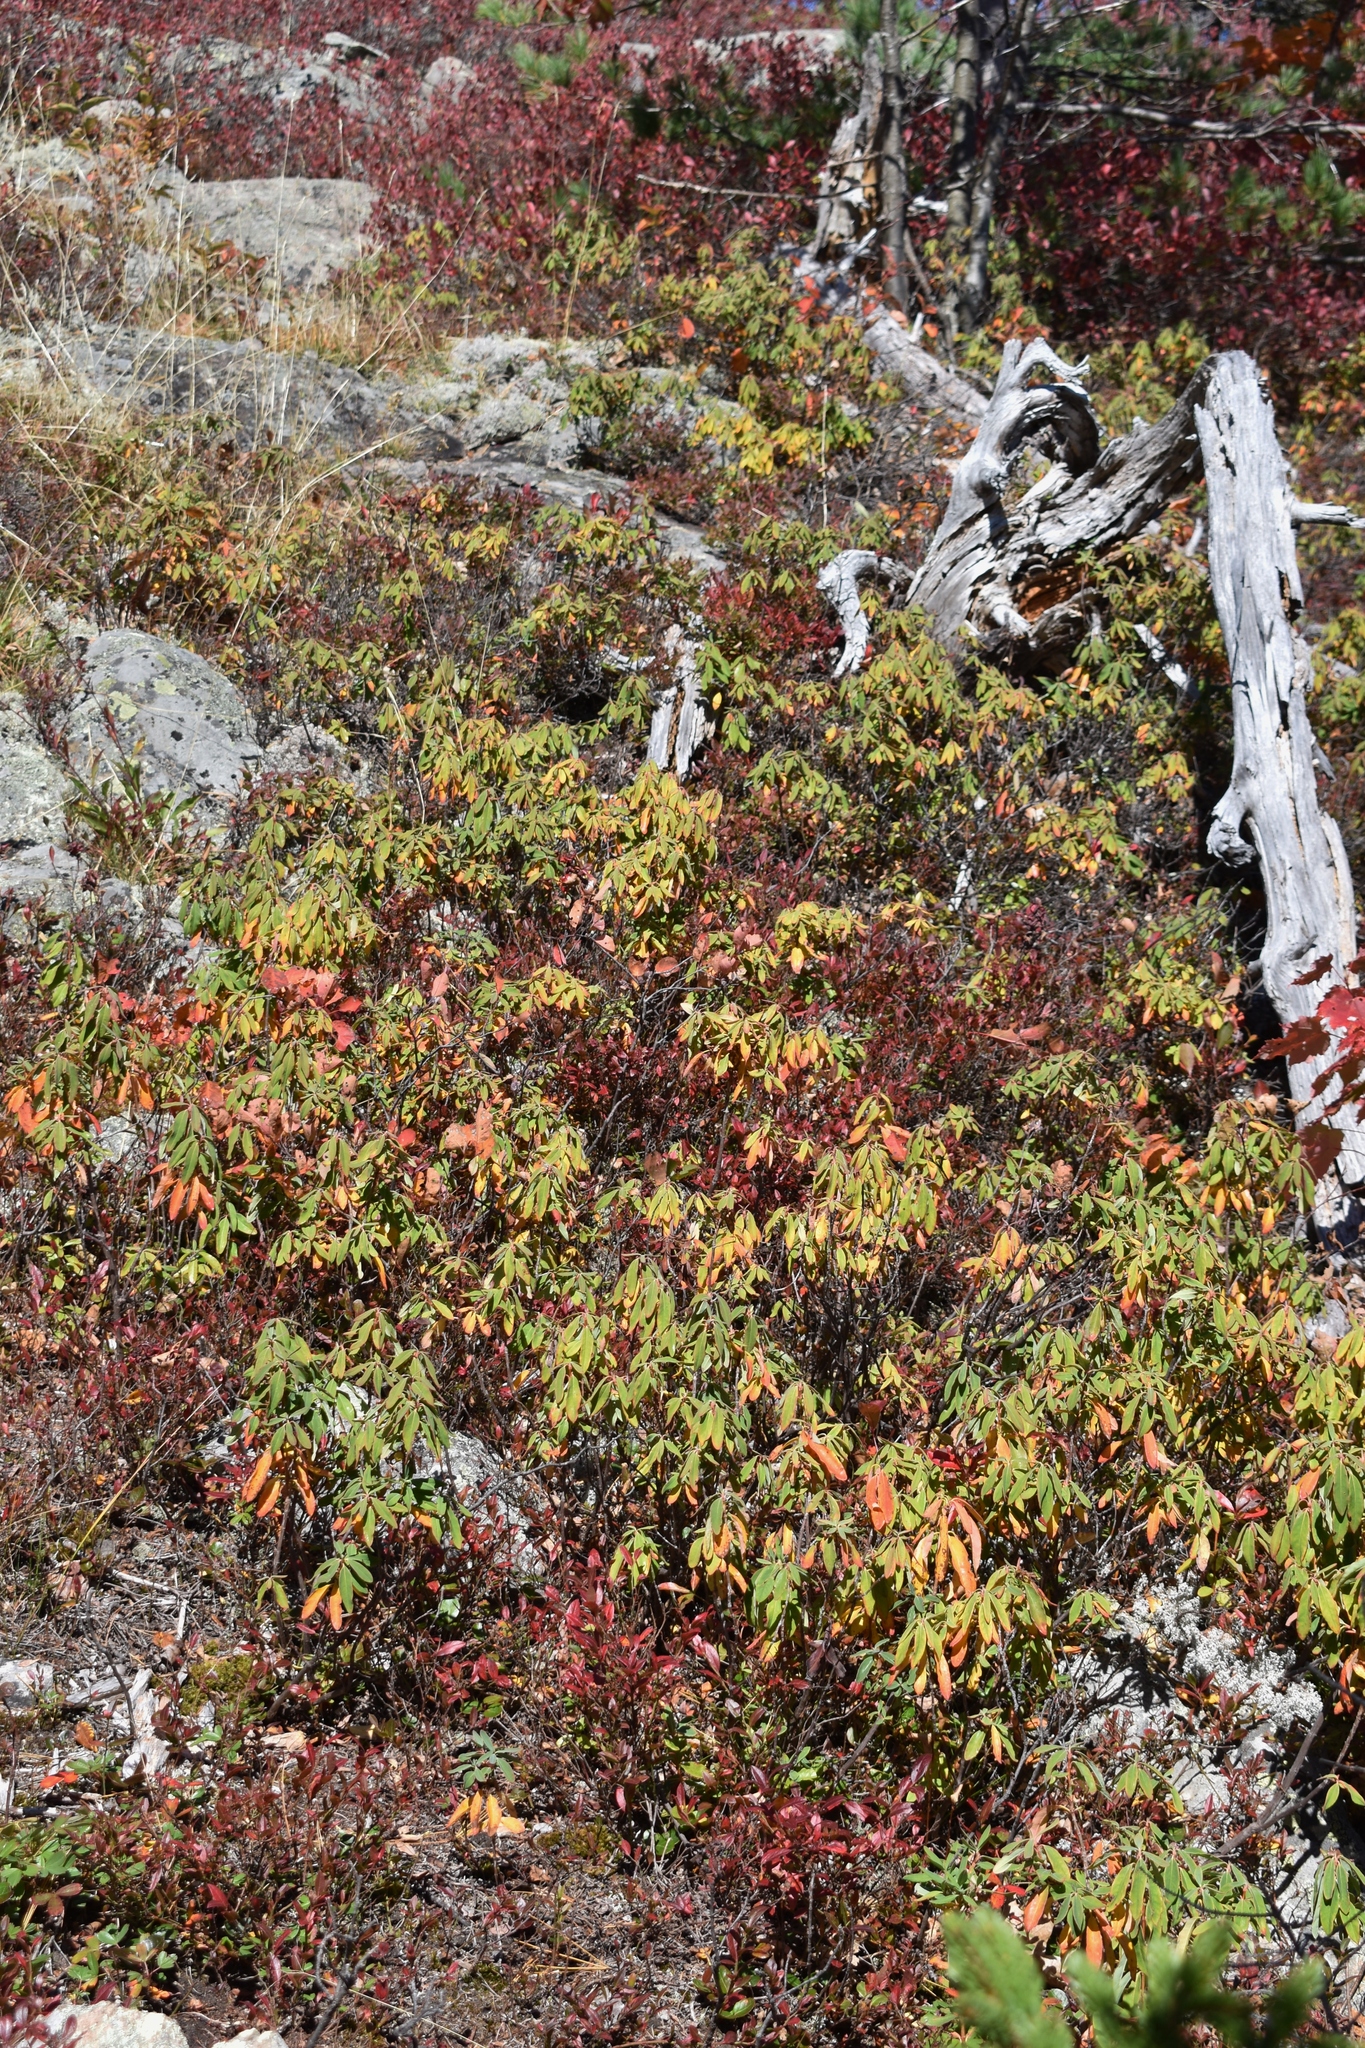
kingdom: Plantae
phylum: Tracheophyta
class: Magnoliopsida
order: Ericales
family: Ericaceae
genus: Kalmia
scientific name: Kalmia angustifolia
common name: Sheep-laurel
